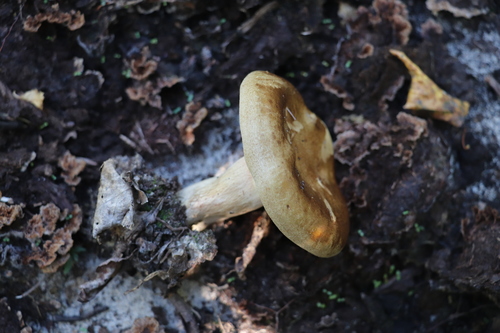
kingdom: Fungi
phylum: Basidiomycota
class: Agaricomycetes
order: Boletales
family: Paxillaceae
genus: Paxillus
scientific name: Paxillus involutus
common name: Brown roll rim
